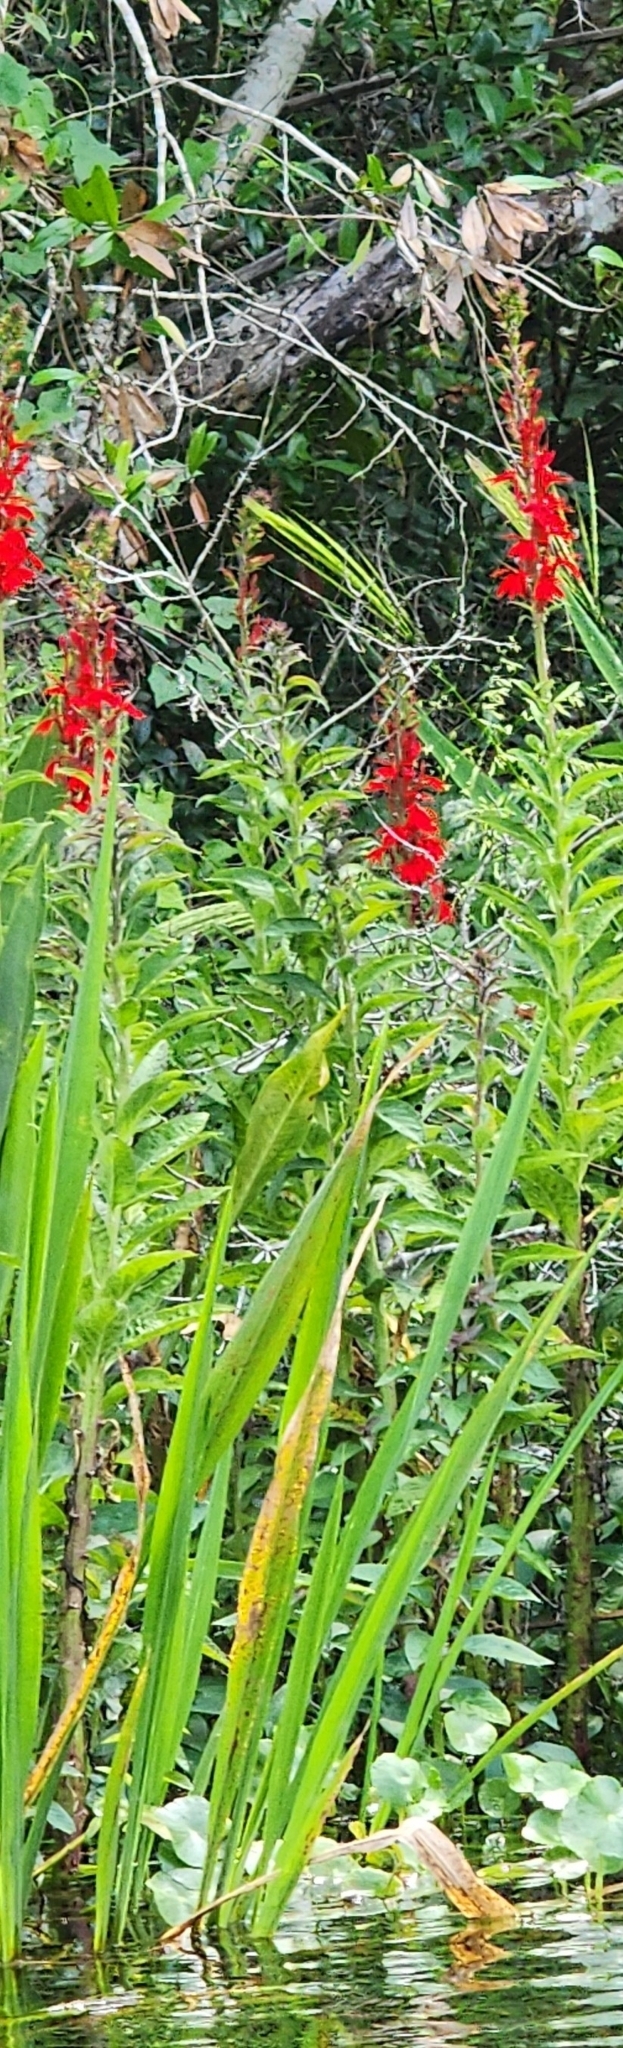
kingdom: Plantae
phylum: Tracheophyta
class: Magnoliopsida
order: Asterales
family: Campanulaceae
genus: Lobelia
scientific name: Lobelia cardinalis
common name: Cardinal flower
